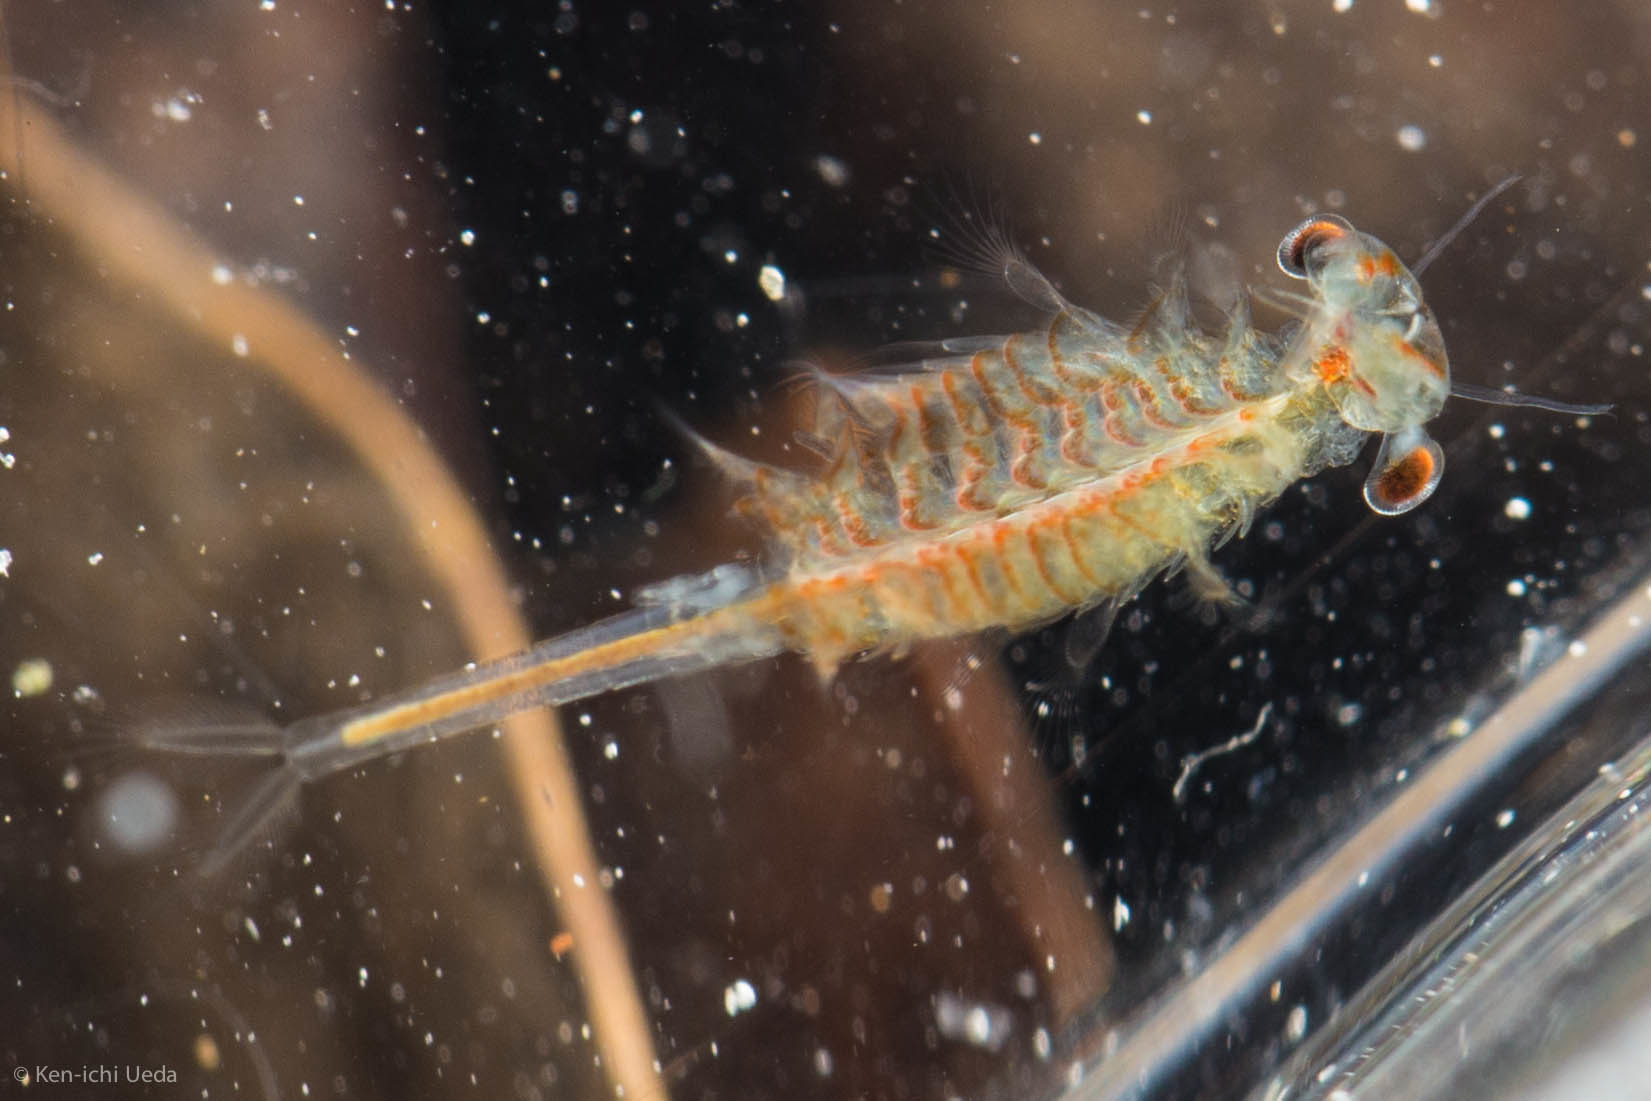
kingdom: Animalia
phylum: Arthropoda
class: Branchiopoda
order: Anostraca
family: Chirocephalidae
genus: Linderiella
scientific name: Linderiella occidentalis
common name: California linderiella
